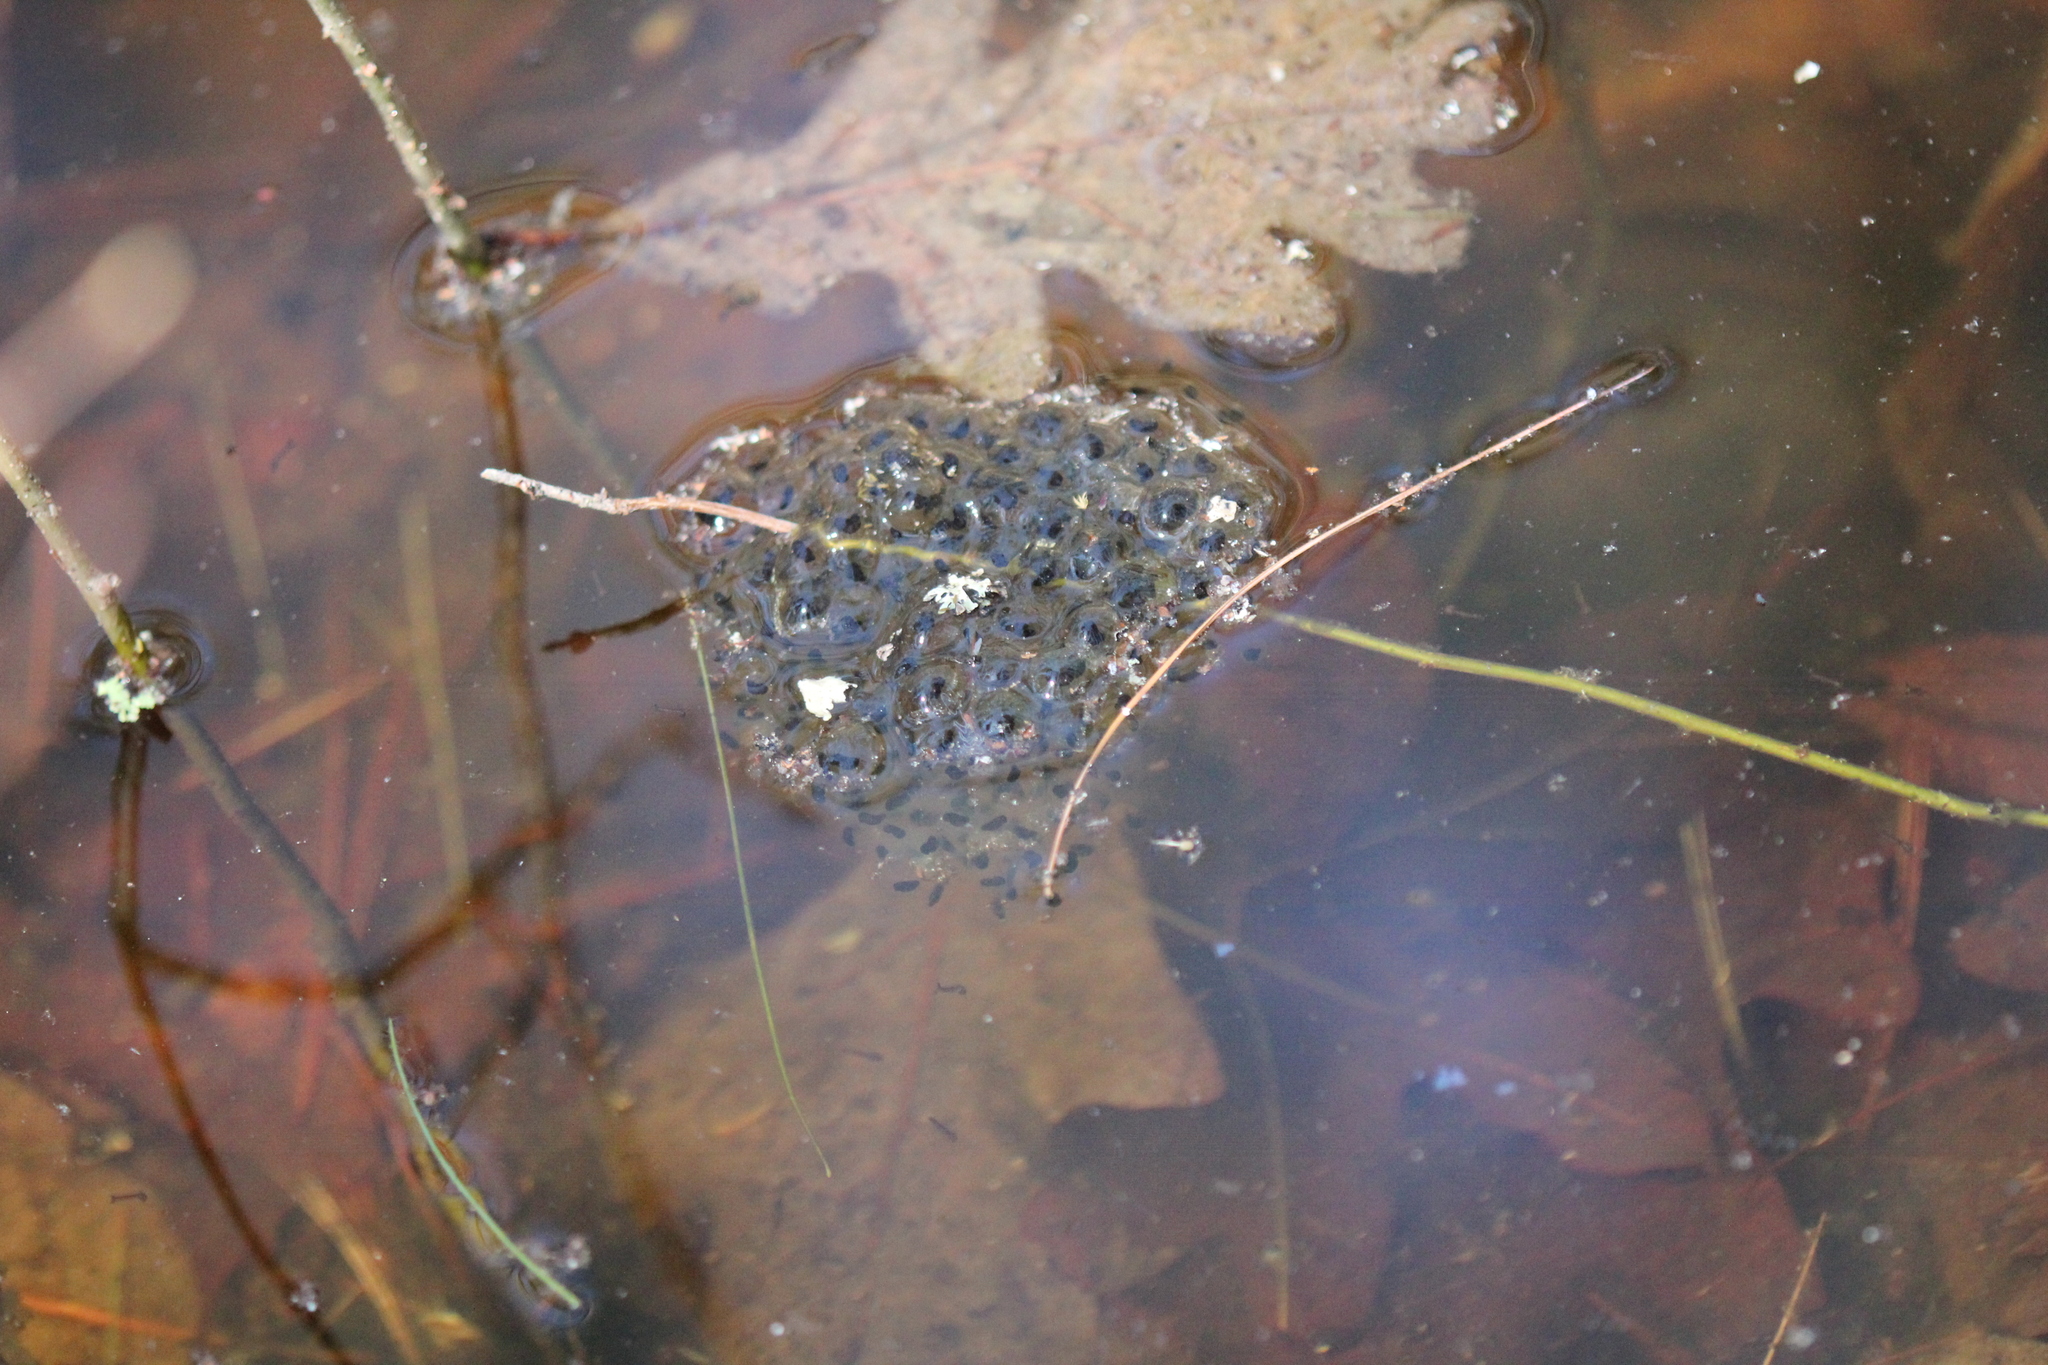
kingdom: Animalia
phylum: Chordata
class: Amphibia
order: Anura
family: Ranidae
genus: Lithobates
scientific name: Lithobates sylvaticus
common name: Wood frog
